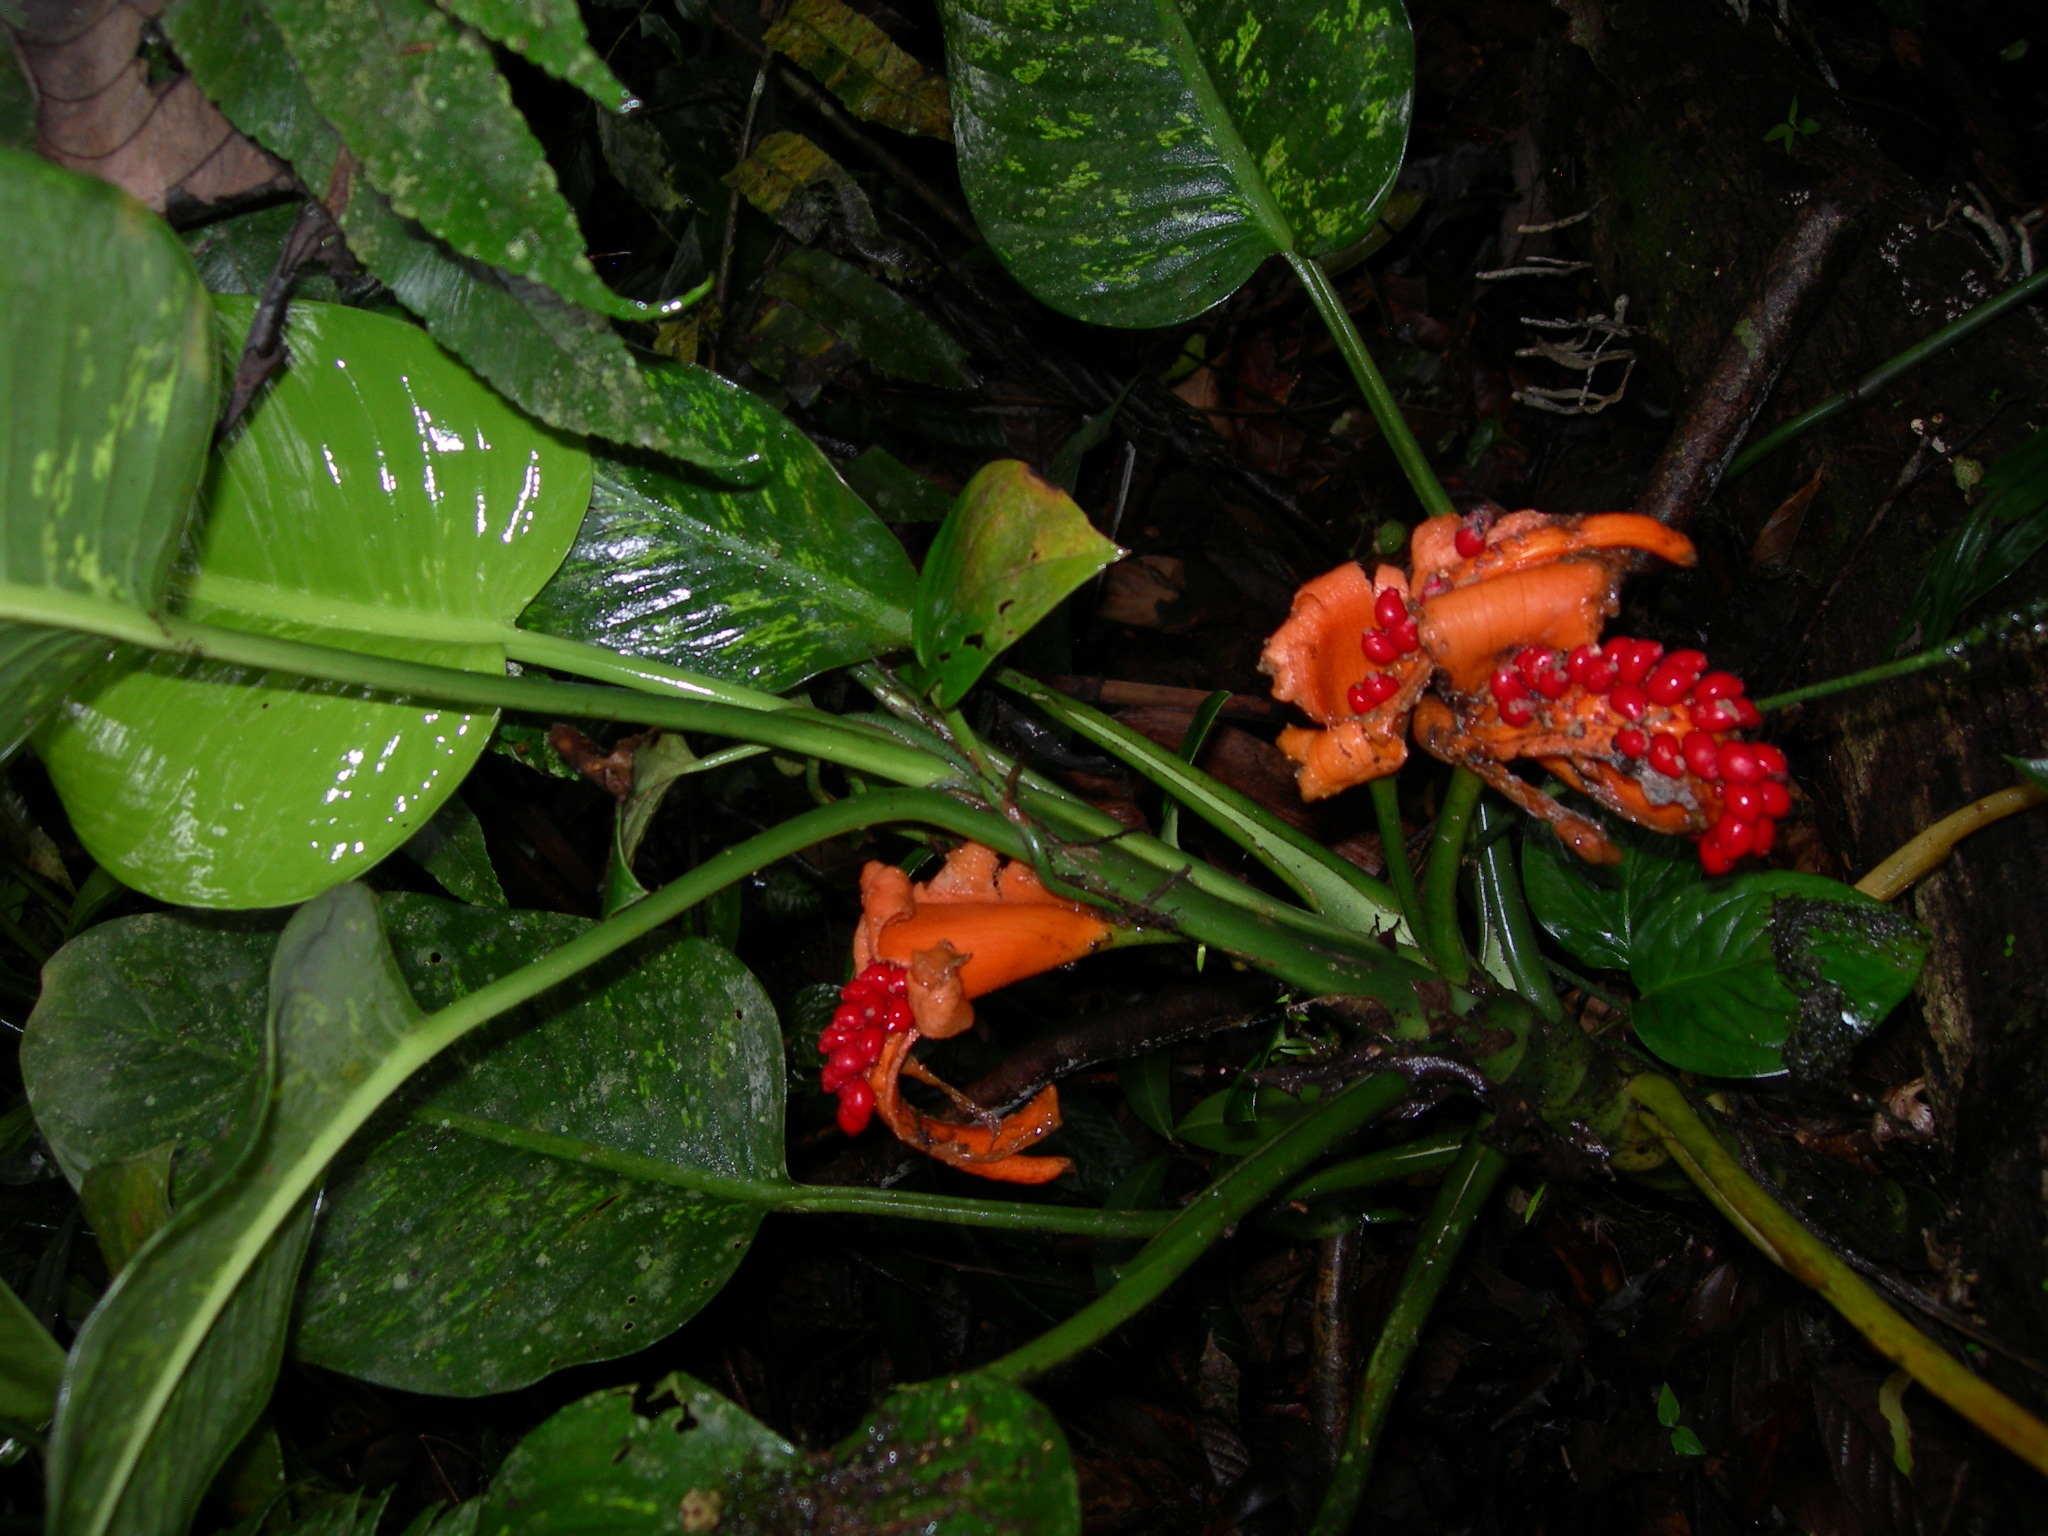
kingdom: Plantae
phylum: Tracheophyta
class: Liliopsida
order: Alismatales
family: Araceae
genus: Dieffenbachia
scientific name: Dieffenbachia oerstedii
